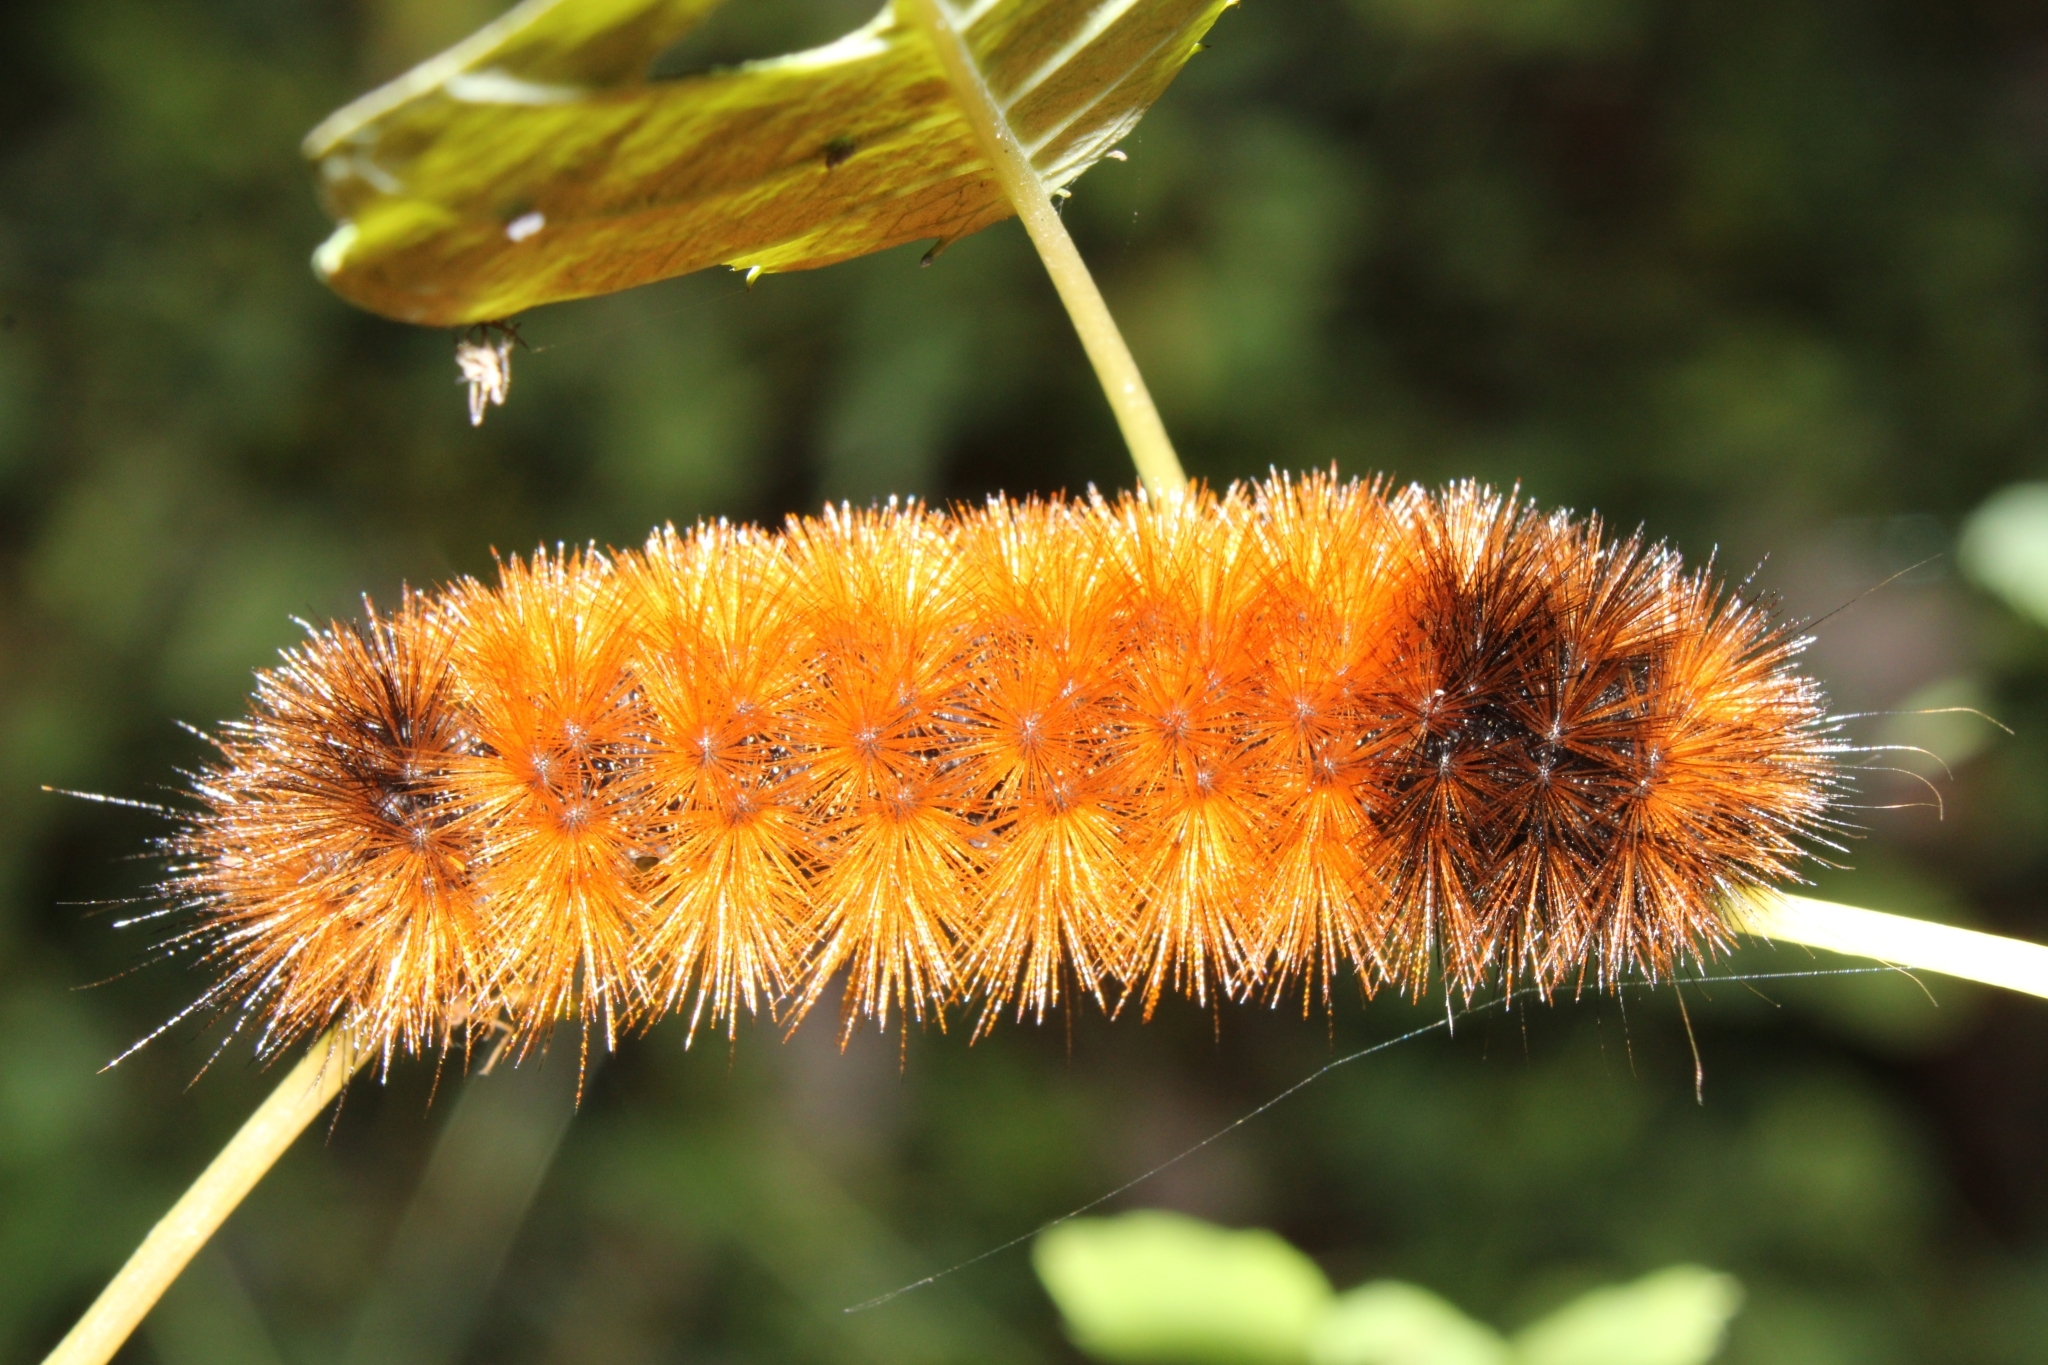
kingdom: Animalia
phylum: Arthropoda
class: Insecta
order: Lepidoptera
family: Erebidae
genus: Pyrrharctia
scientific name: Pyrrharctia isabella
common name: Isabella tiger moth
